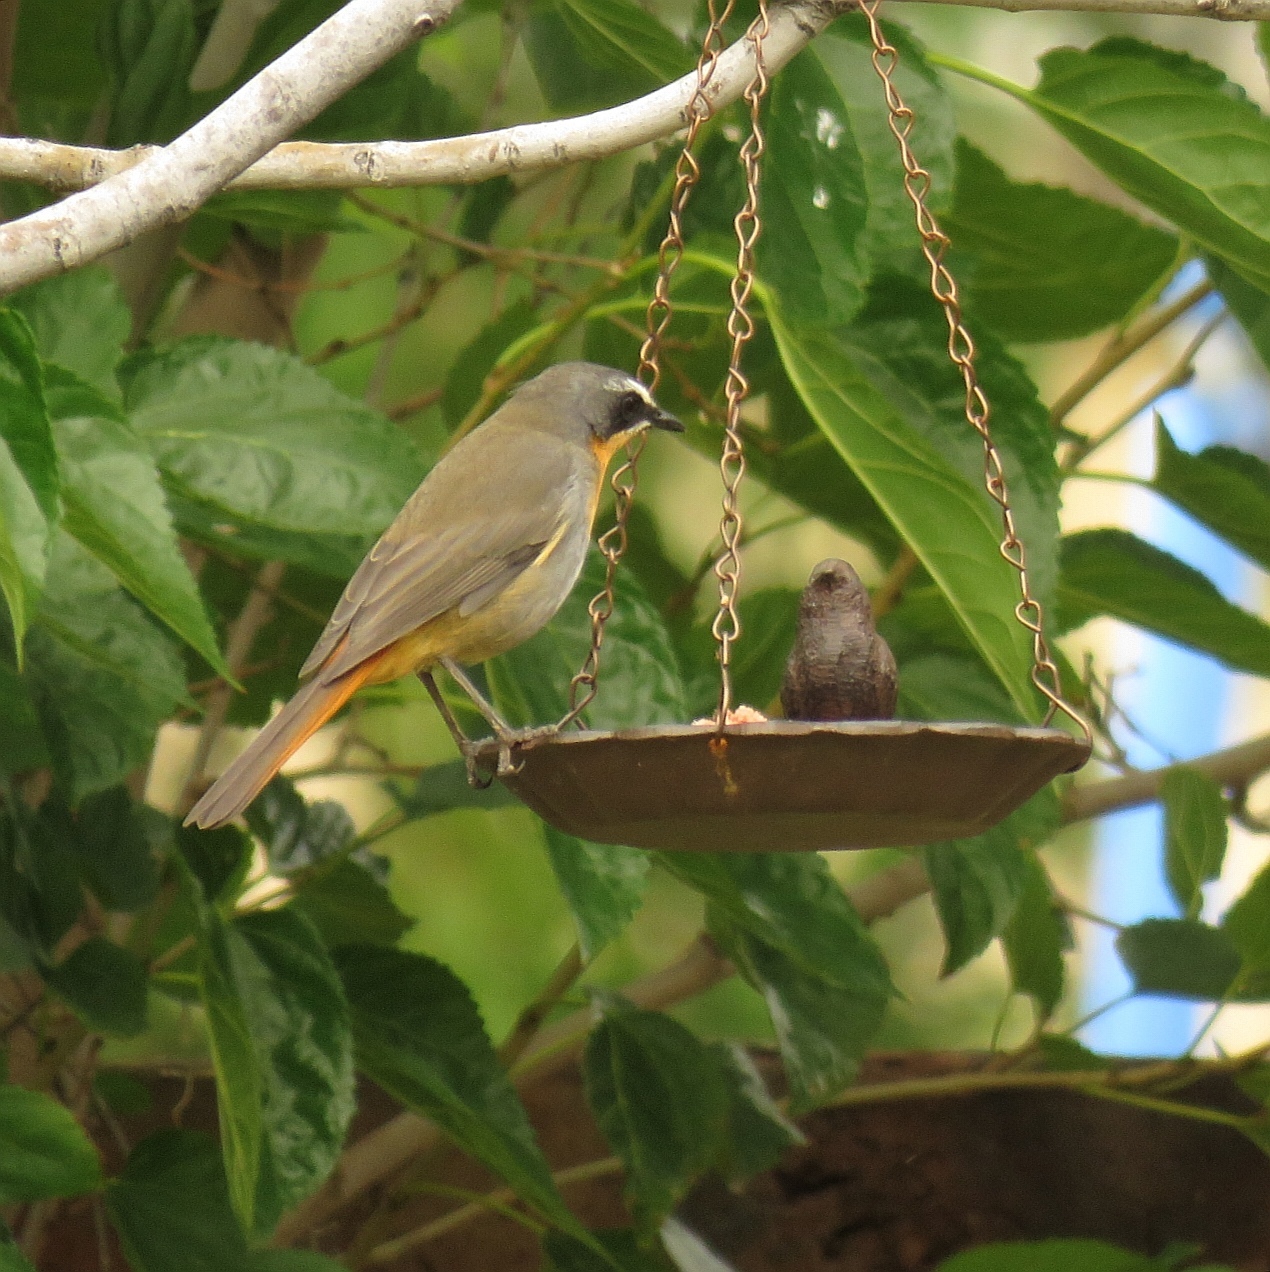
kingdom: Animalia
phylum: Chordata
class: Aves
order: Passeriformes
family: Muscicapidae
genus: Cossypha
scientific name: Cossypha caffra
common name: Cape robin-chat
